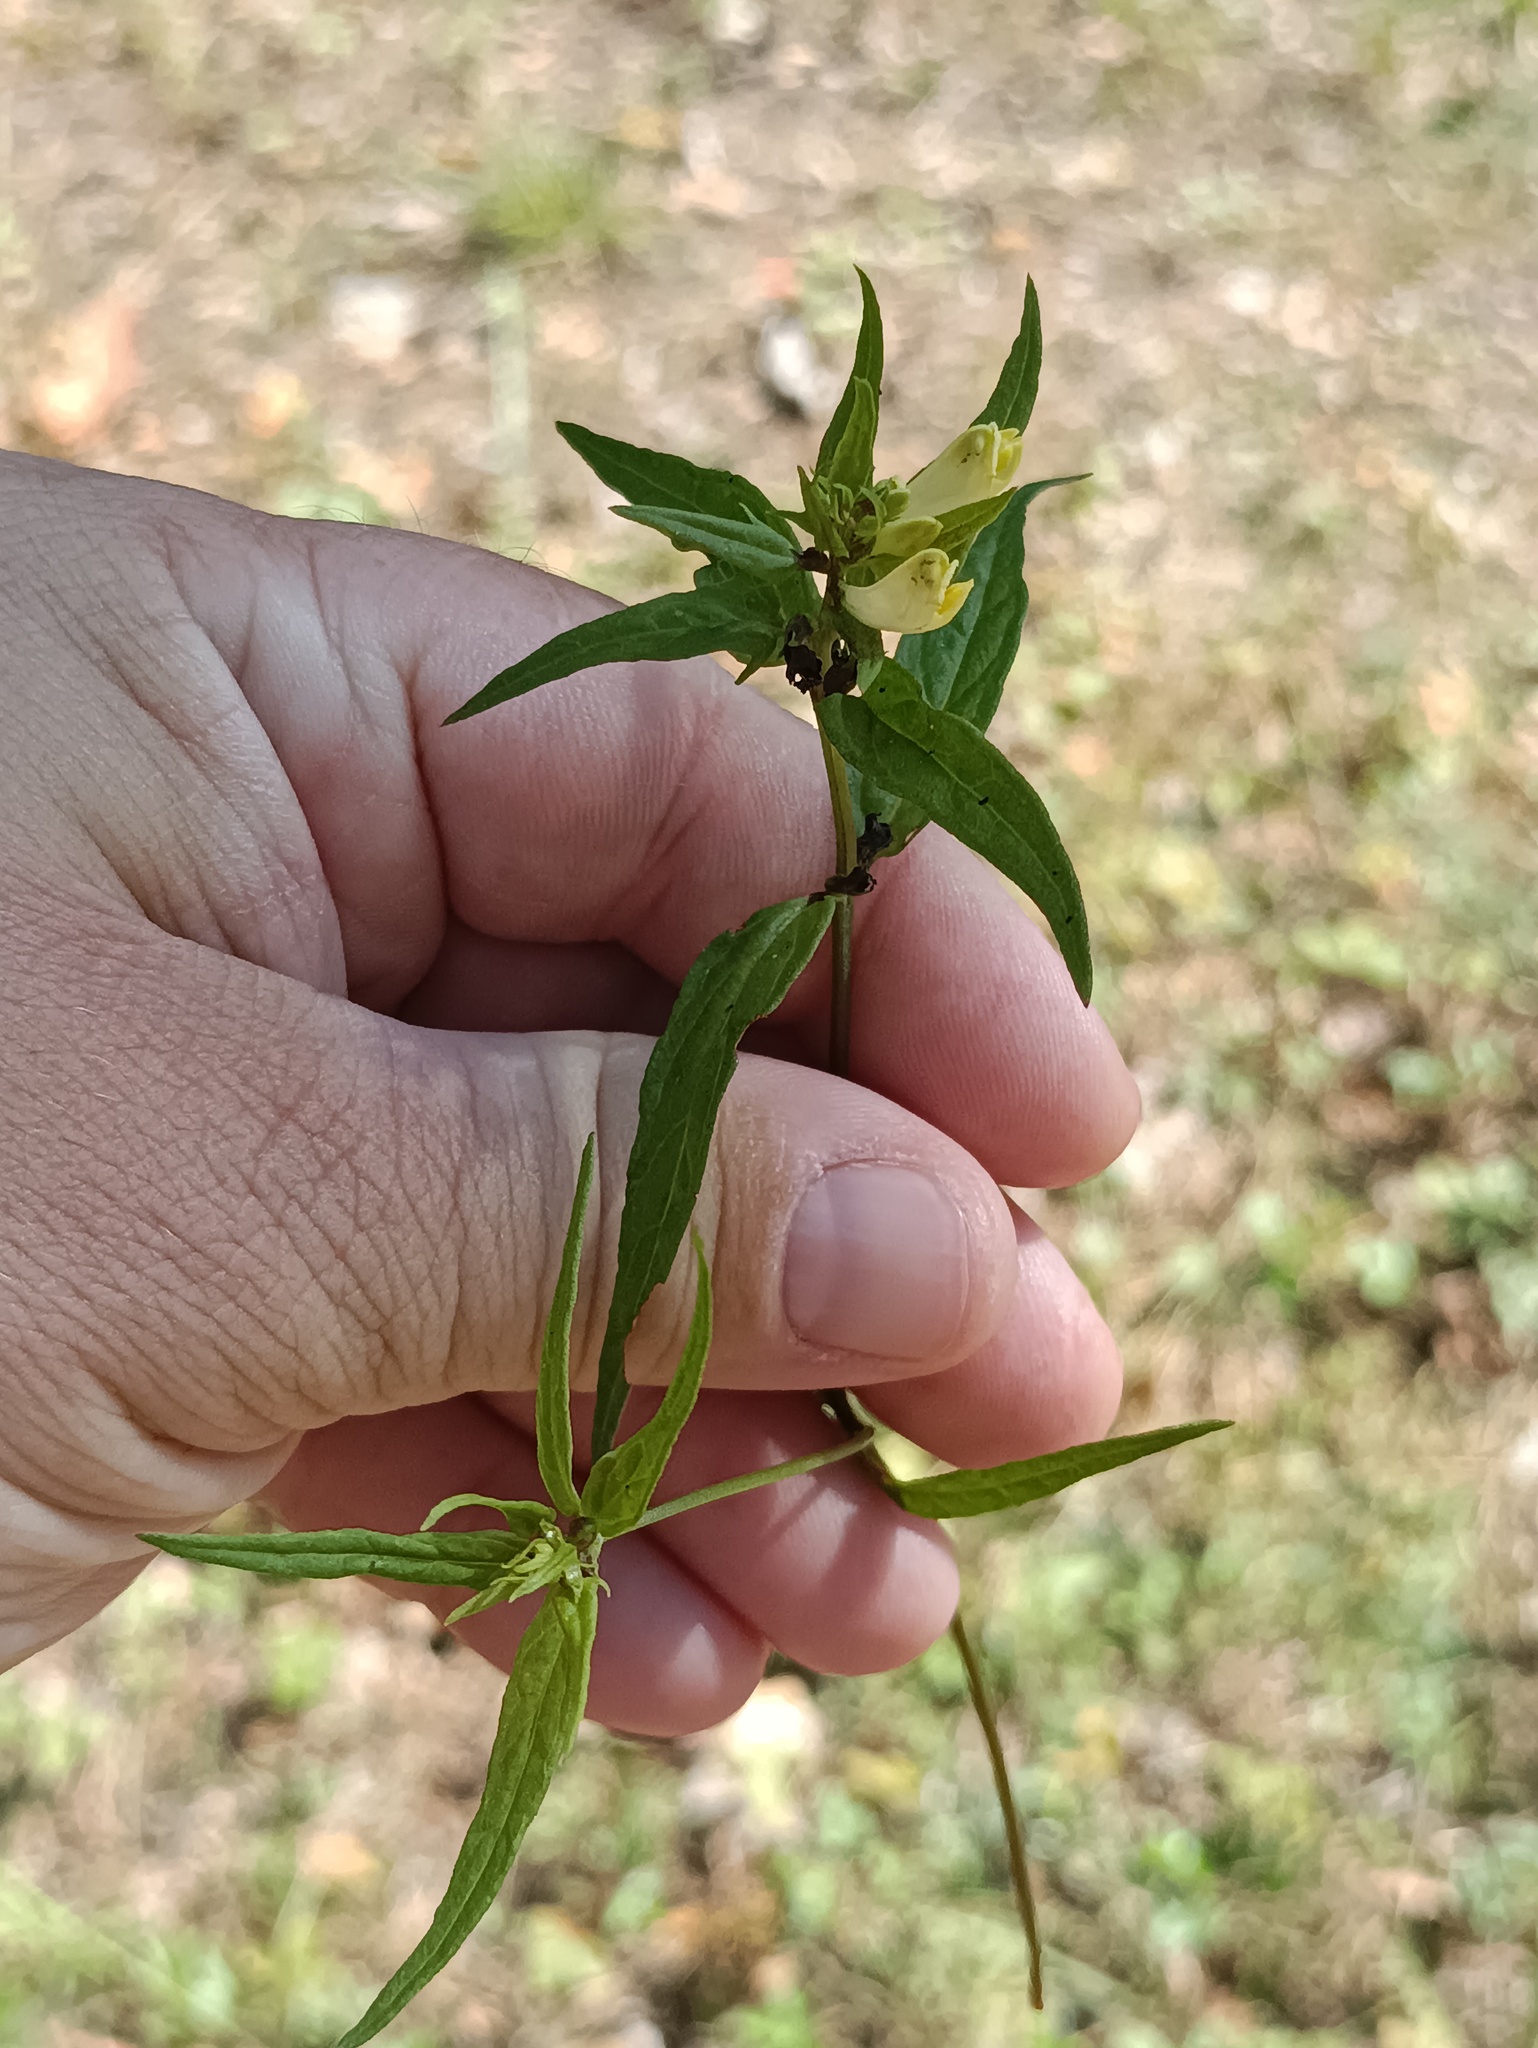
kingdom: Plantae
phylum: Tracheophyta
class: Magnoliopsida
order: Lamiales
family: Orobanchaceae
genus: Melampyrum
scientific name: Melampyrum pratense
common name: Common cow-wheat
